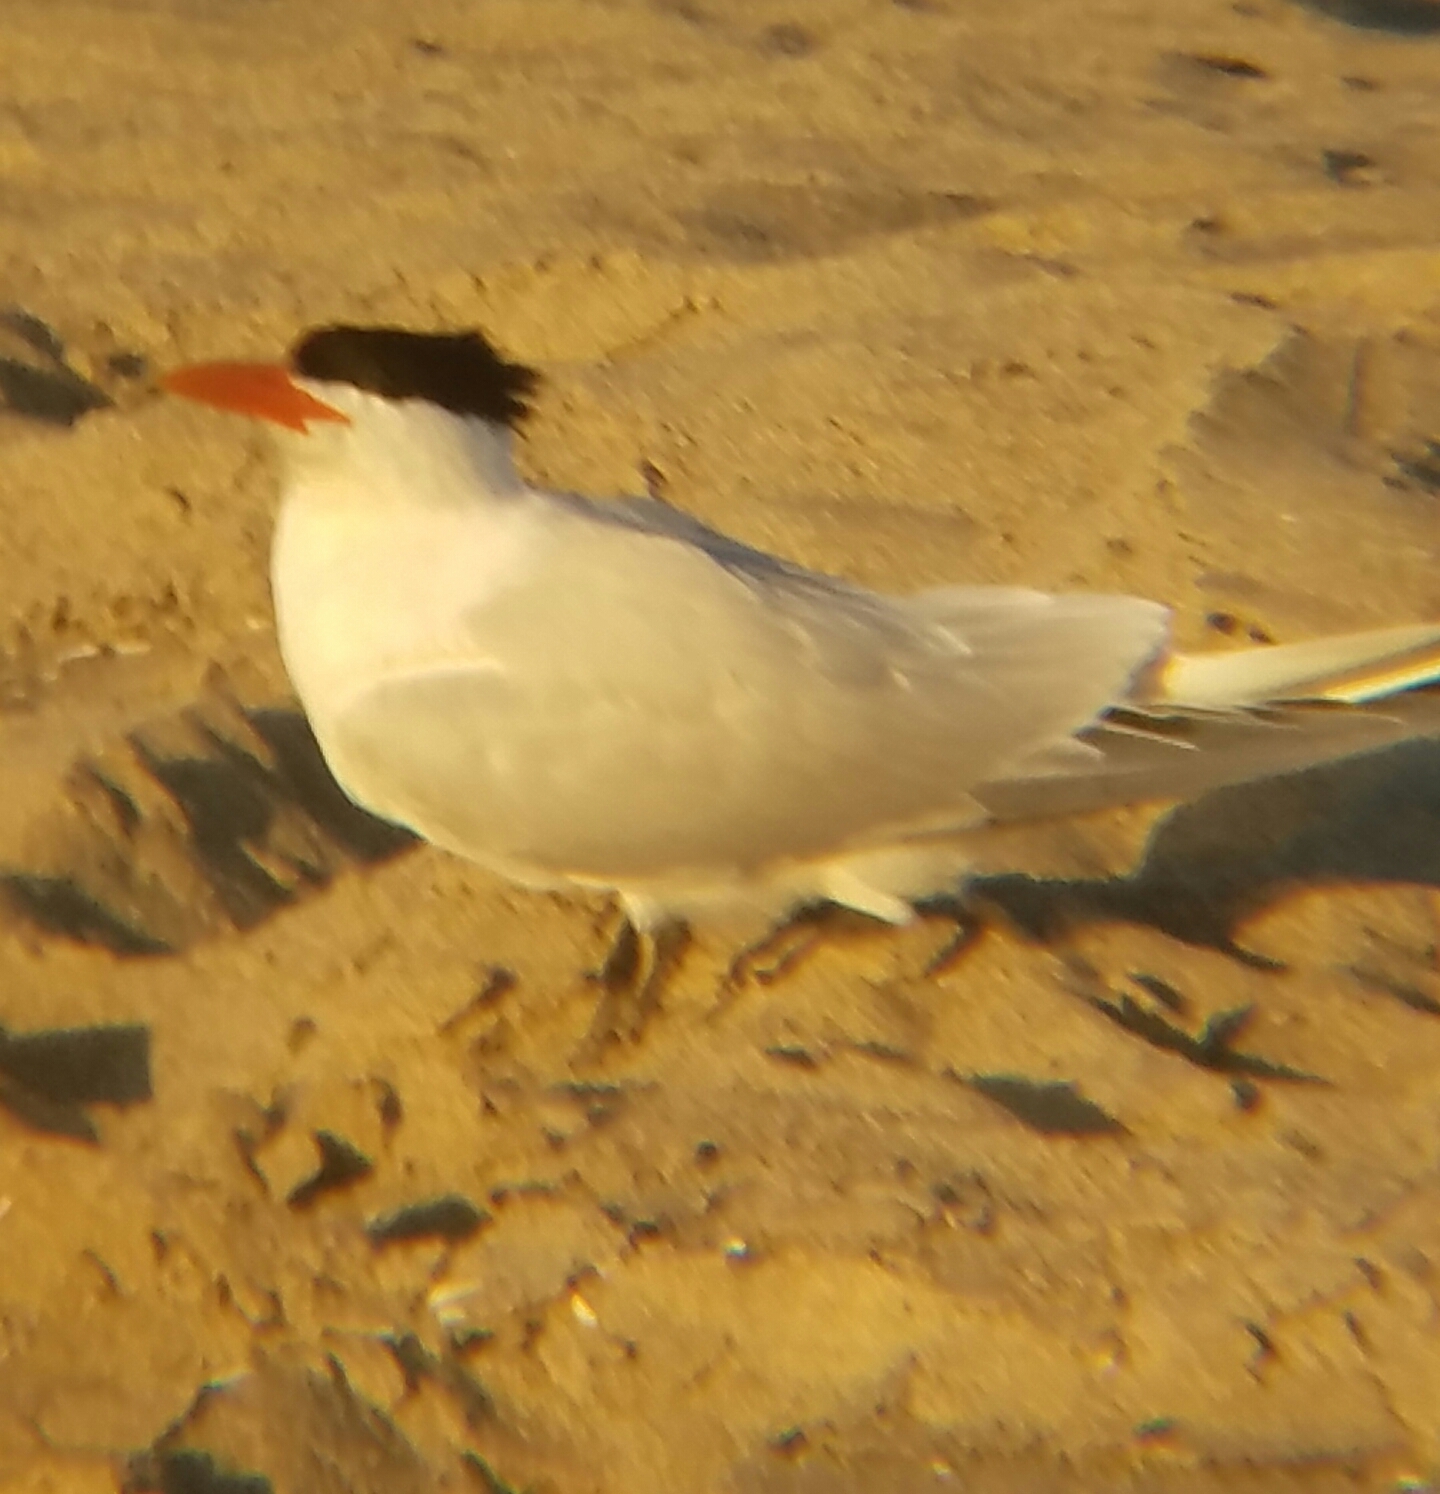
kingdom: Animalia
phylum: Chordata
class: Aves
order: Charadriiformes
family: Laridae
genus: Hydroprogne
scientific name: Hydroprogne caspia
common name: Caspian tern
